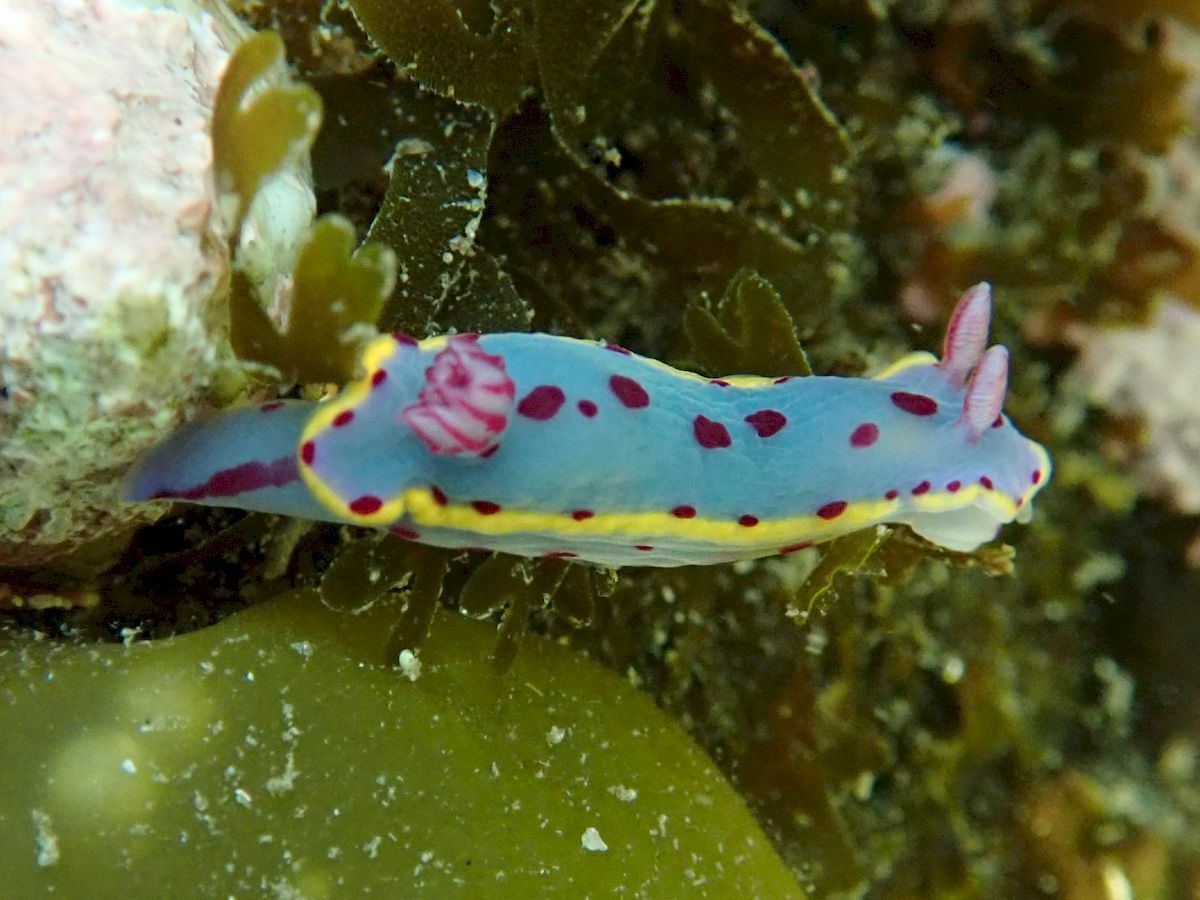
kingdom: Animalia
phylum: Mollusca
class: Gastropoda
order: Nudibranchia
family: Chromodorididae
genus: Hypselodoris
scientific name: Hypselodoris bennetti
